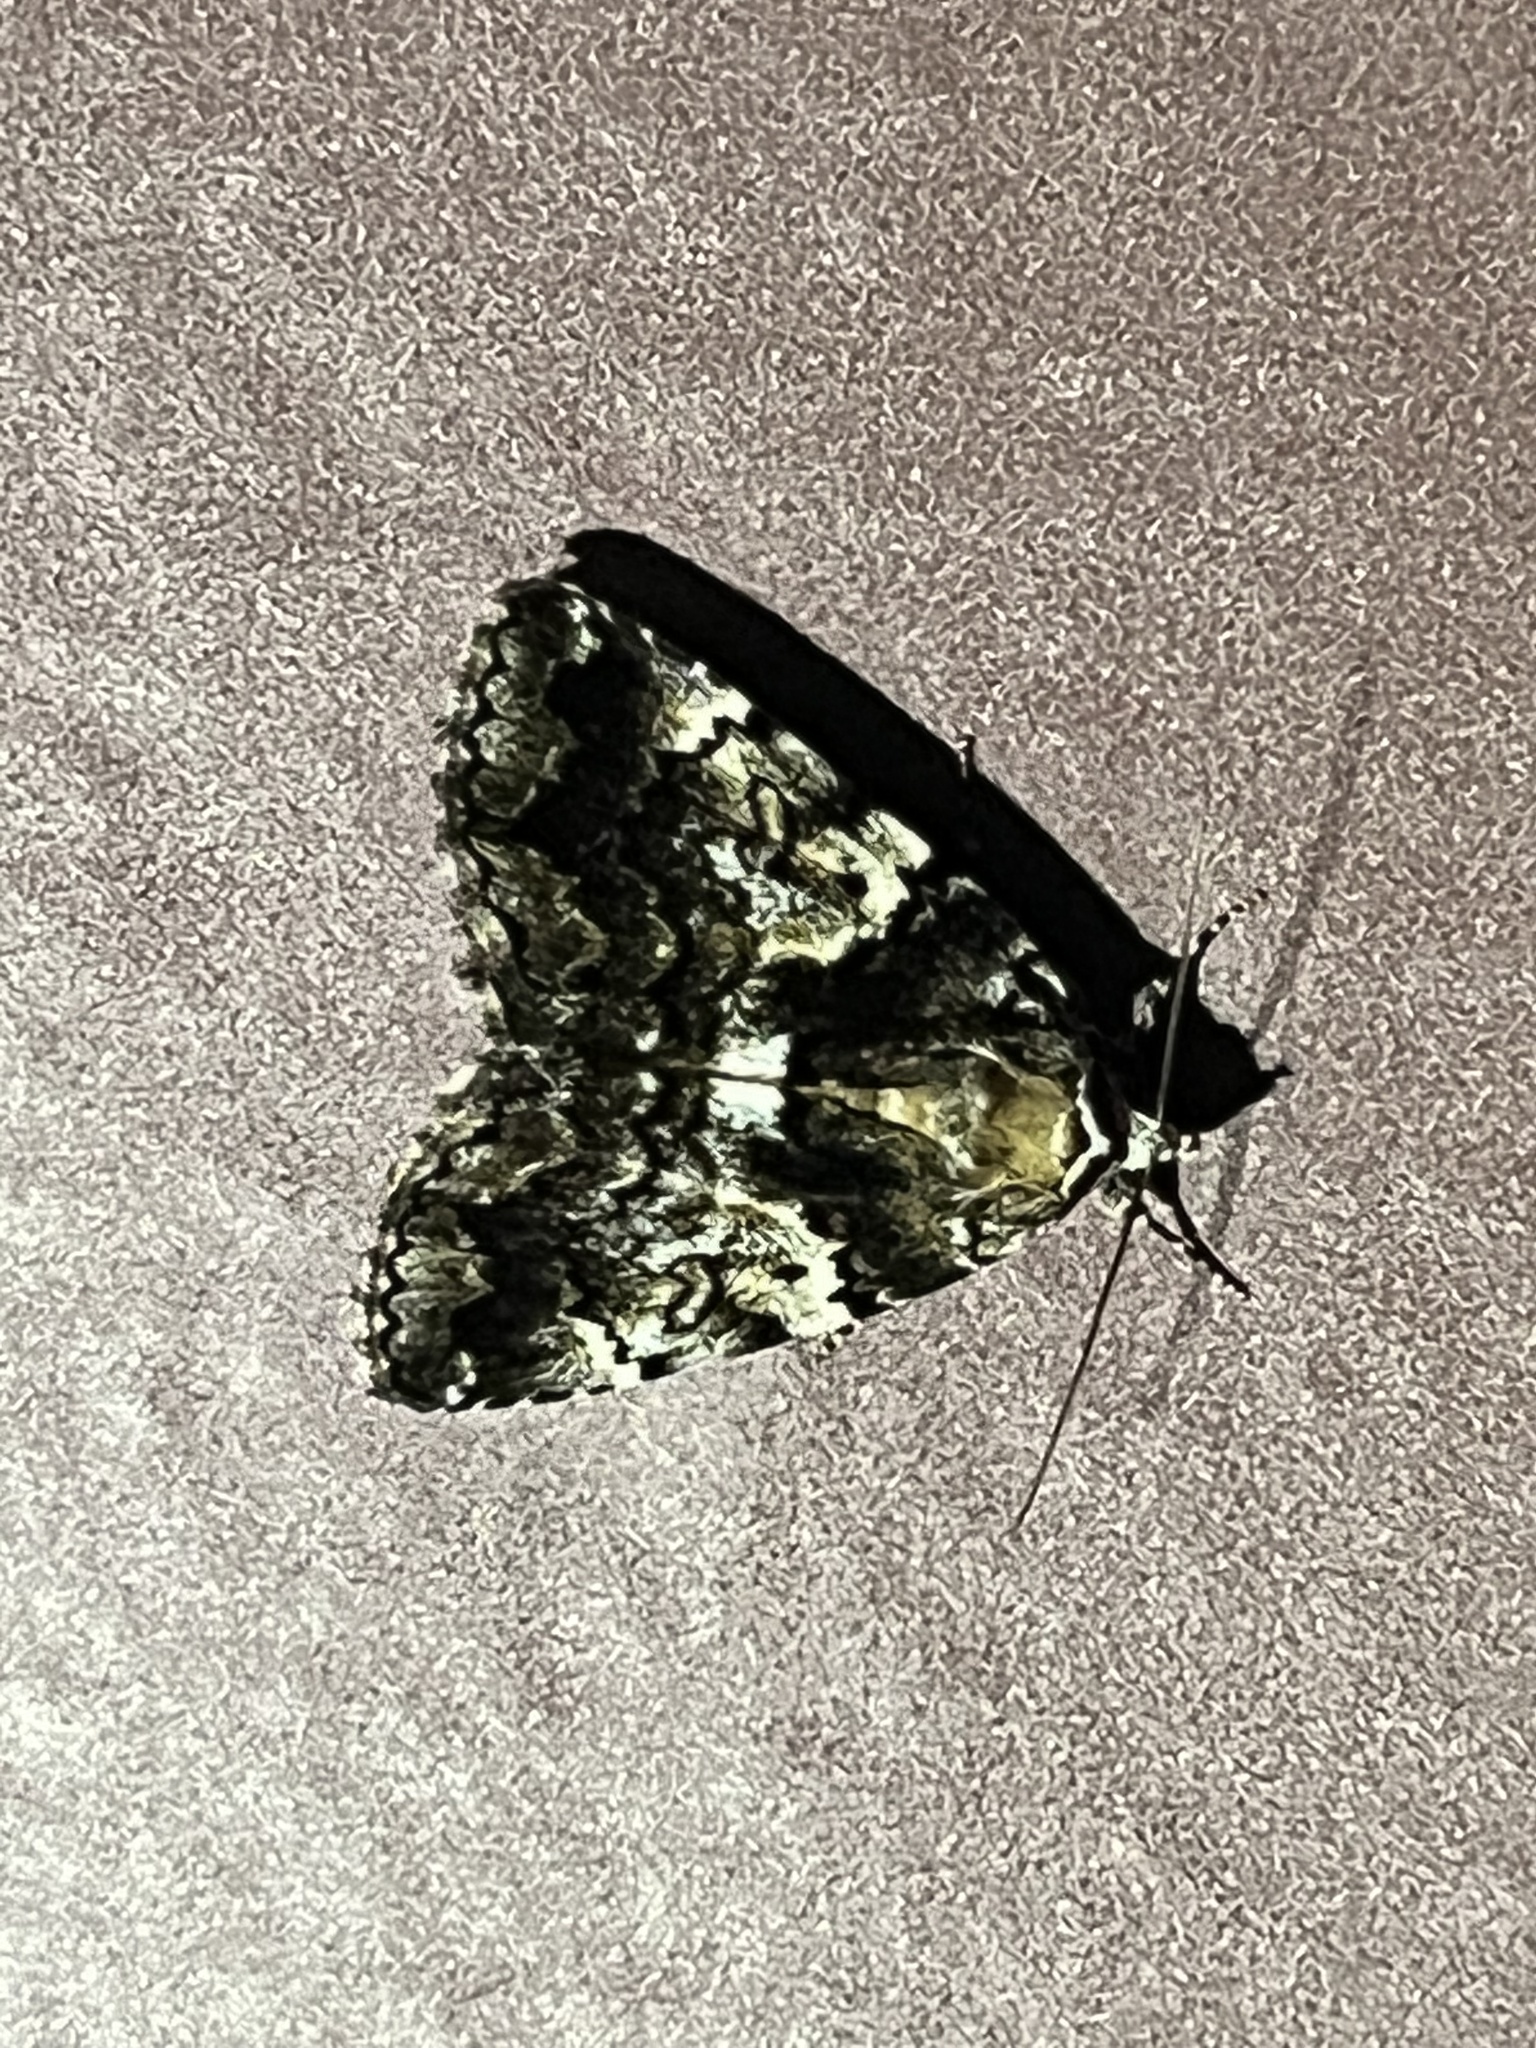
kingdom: Animalia
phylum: Arthropoda
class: Insecta
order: Lepidoptera
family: Erebidae
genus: Allotria
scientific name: Allotria elonympha
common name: False underwing
